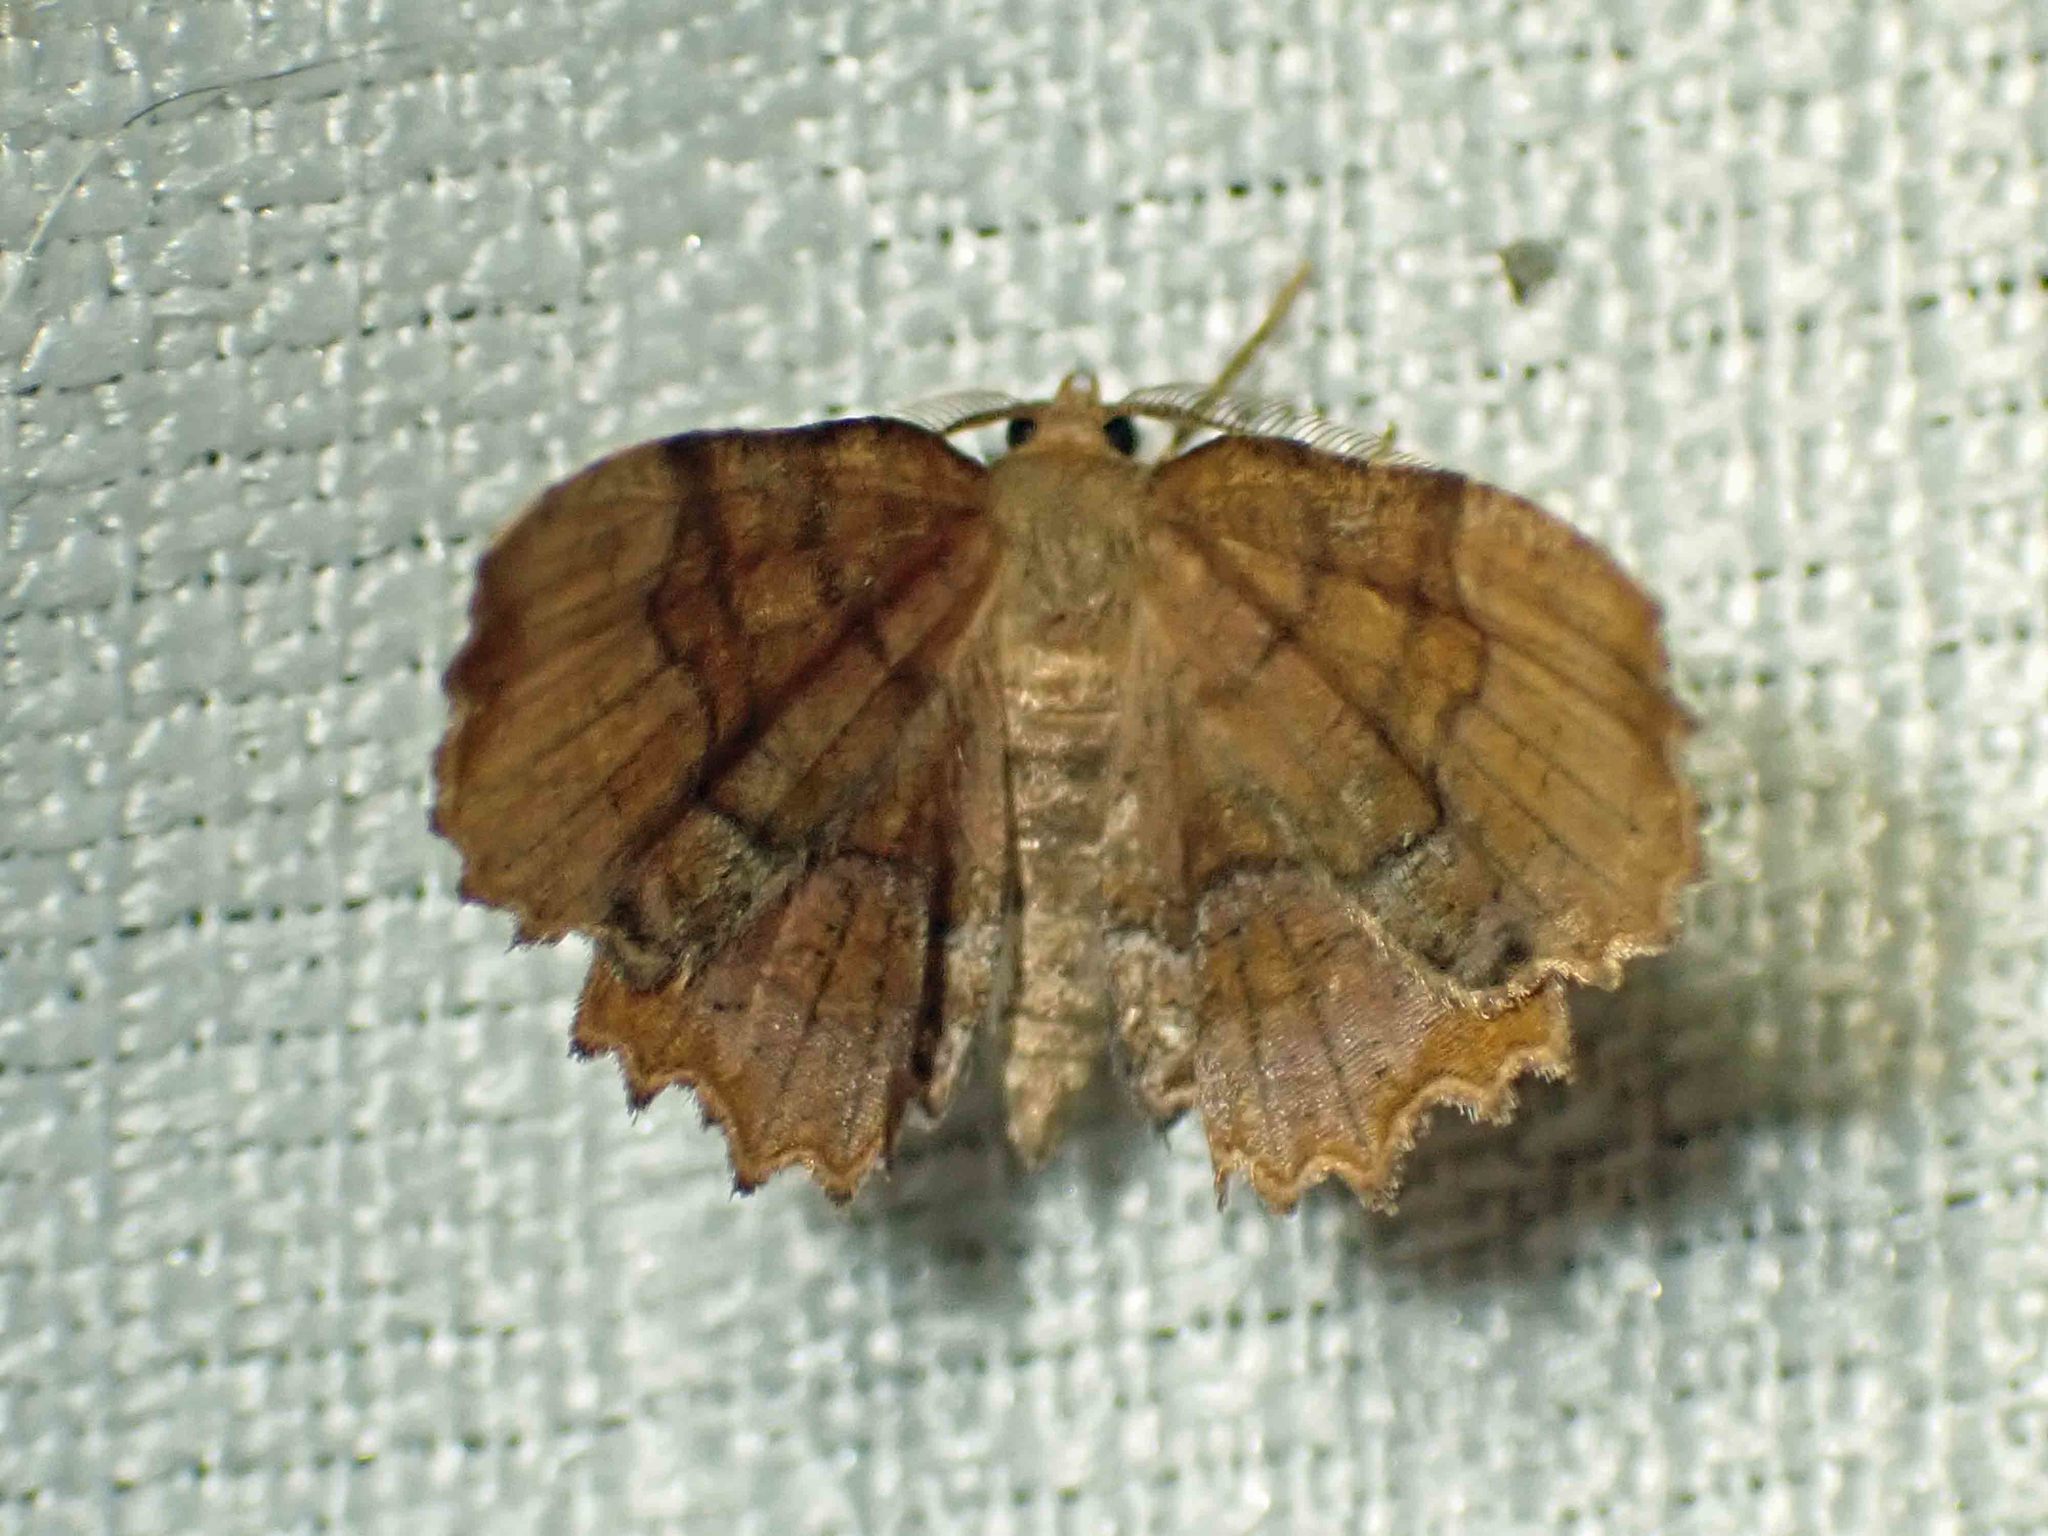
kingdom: Animalia
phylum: Arthropoda
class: Insecta
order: Lepidoptera
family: Geometridae
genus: Cepphis
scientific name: Cepphis armataria
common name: Scallop moth
